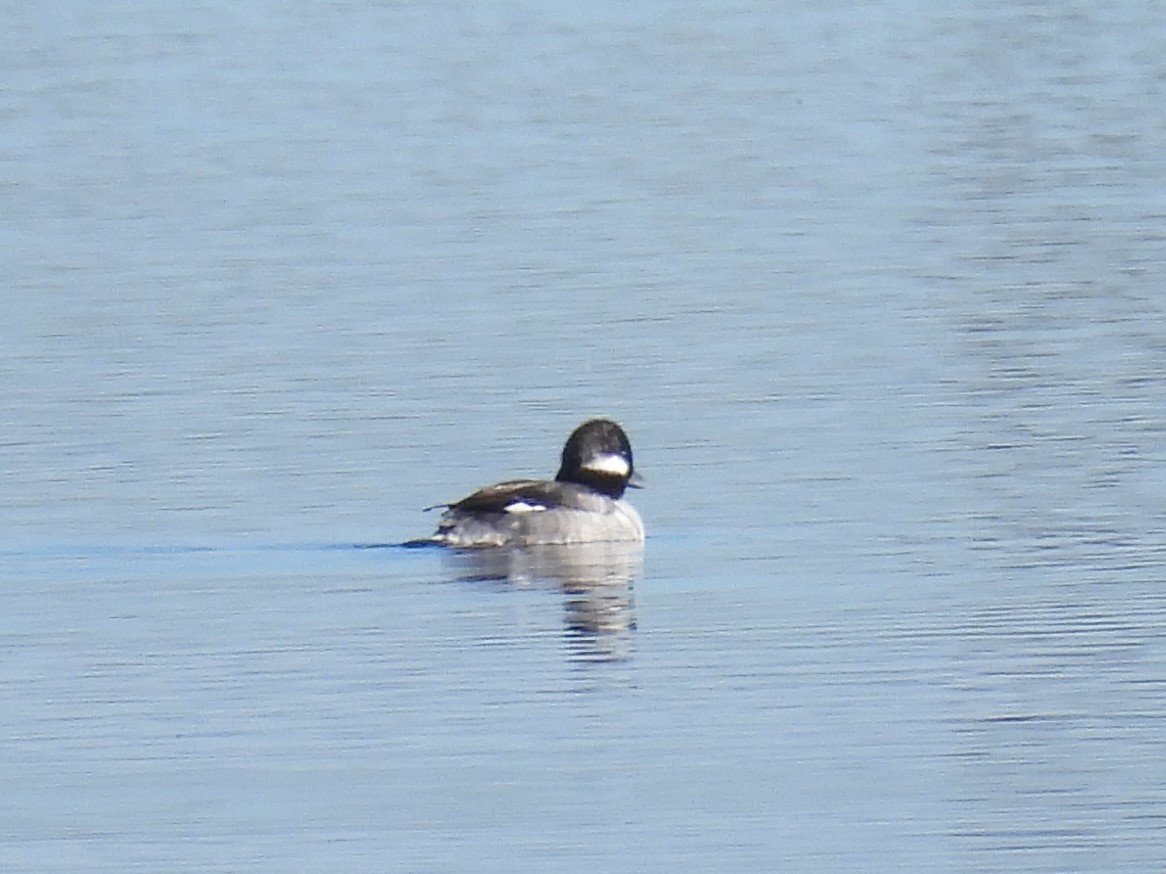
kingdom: Animalia
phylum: Chordata
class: Aves
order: Anseriformes
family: Anatidae
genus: Bucephala
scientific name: Bucephala albeola
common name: Bufflehead
